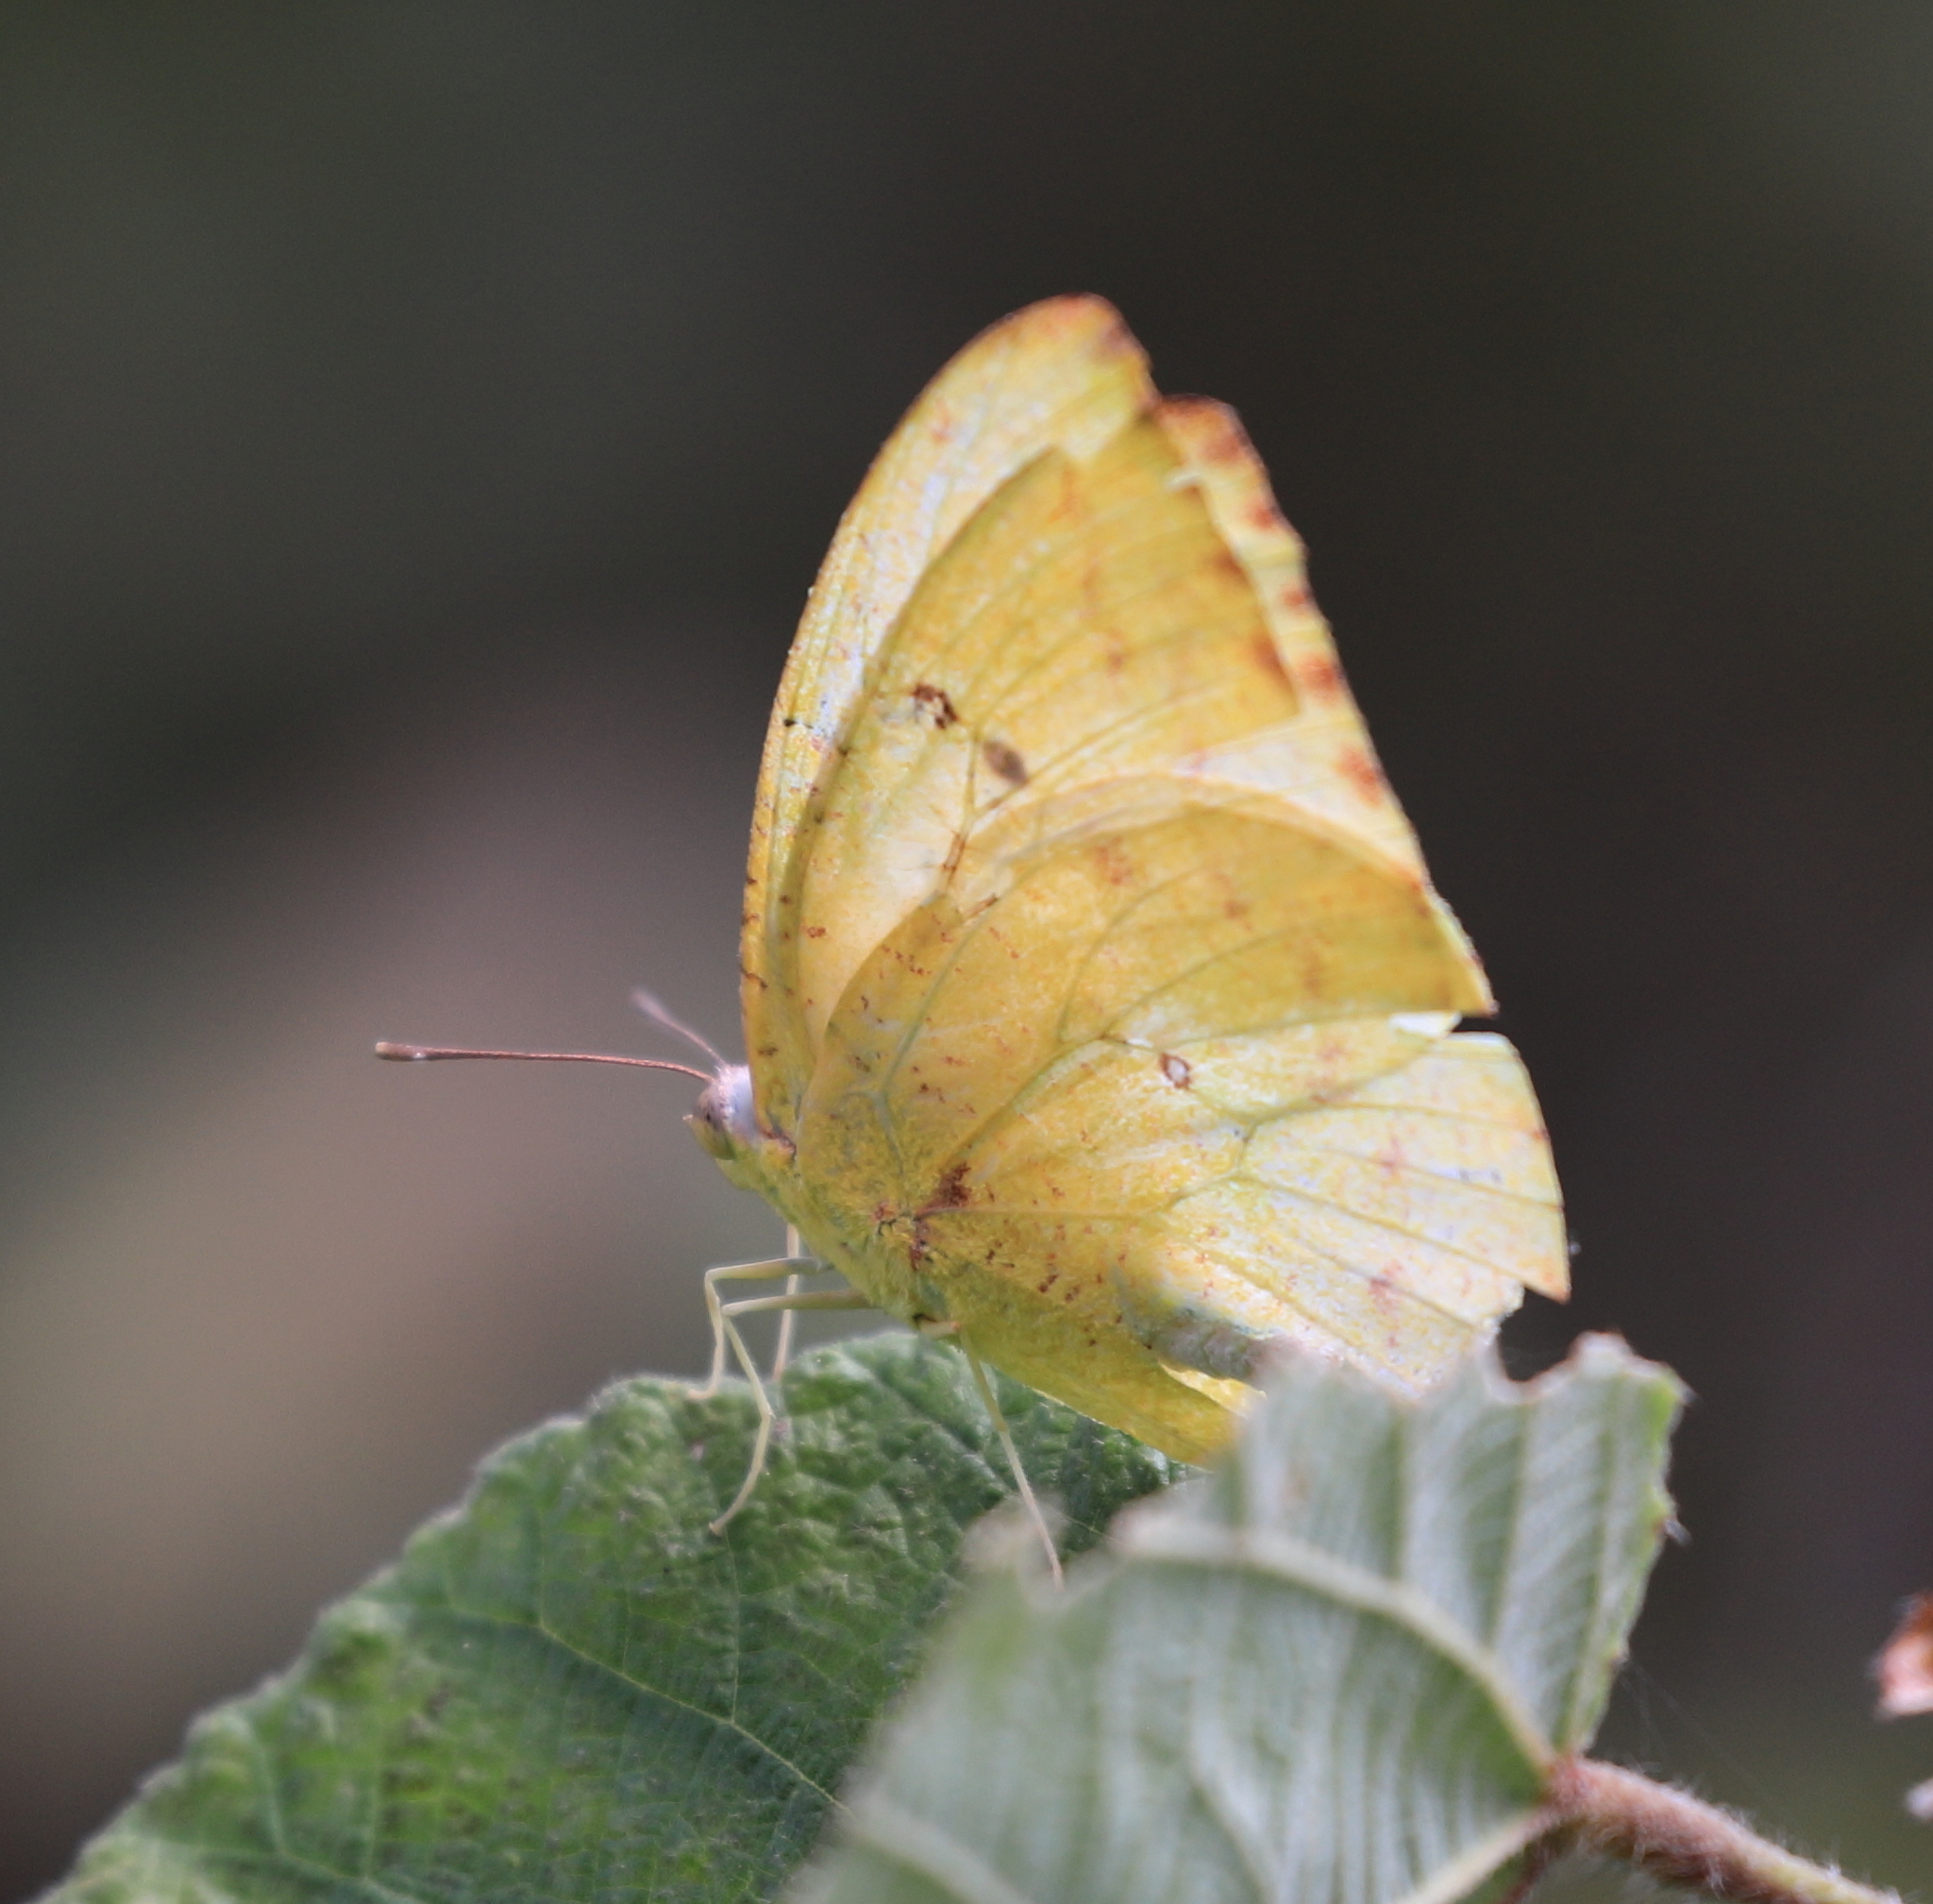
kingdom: Animalia
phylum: Arthropoda
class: Insecta
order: Lepidoptera
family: Pieridae
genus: Catopsilia
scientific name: Catopsilia florella
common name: African migrant
